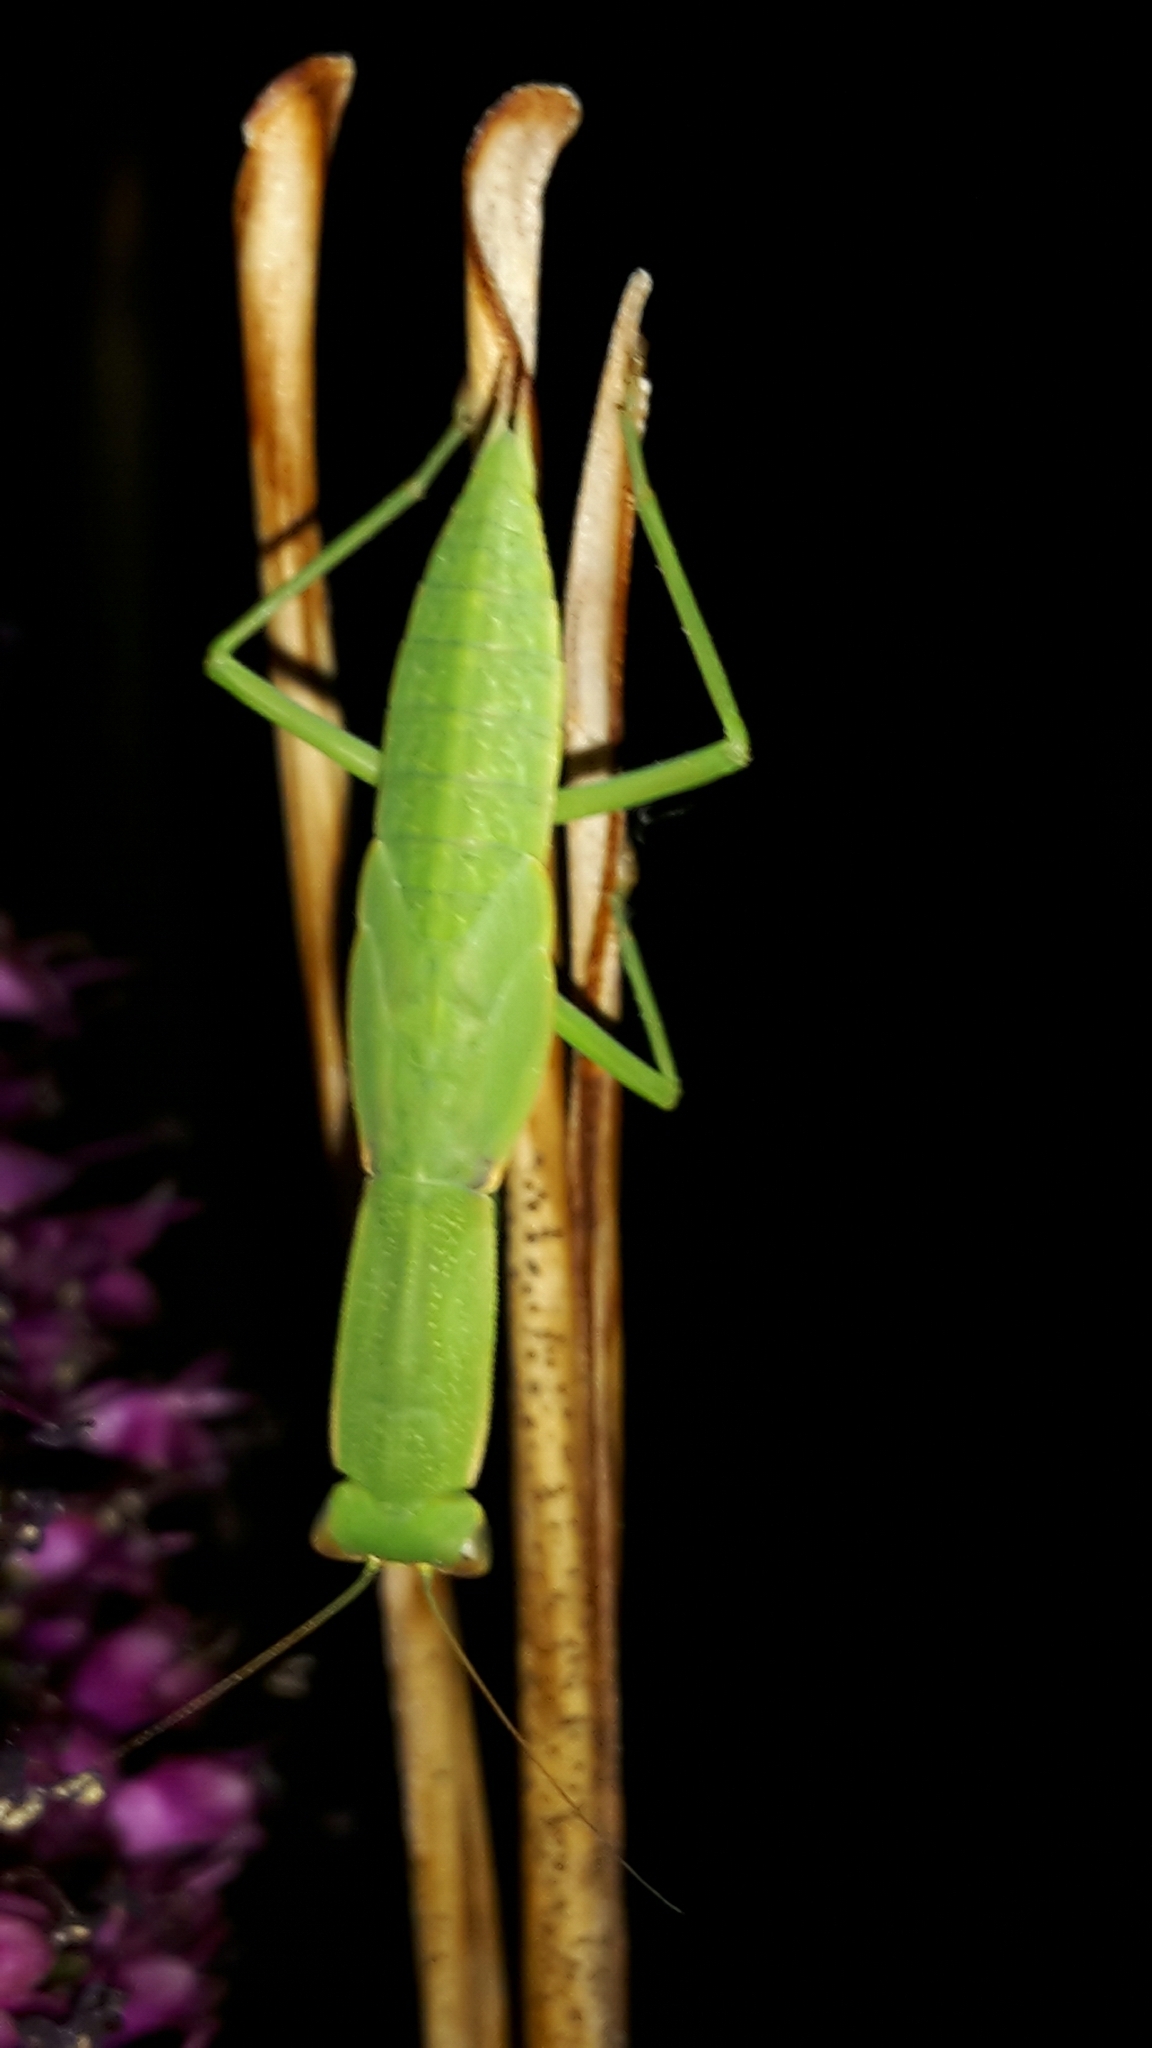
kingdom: Animalia
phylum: Arthropoda
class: Insecta
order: Mantodea
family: Mantidae
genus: Orthodera
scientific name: Orthodera novaezealandiae
